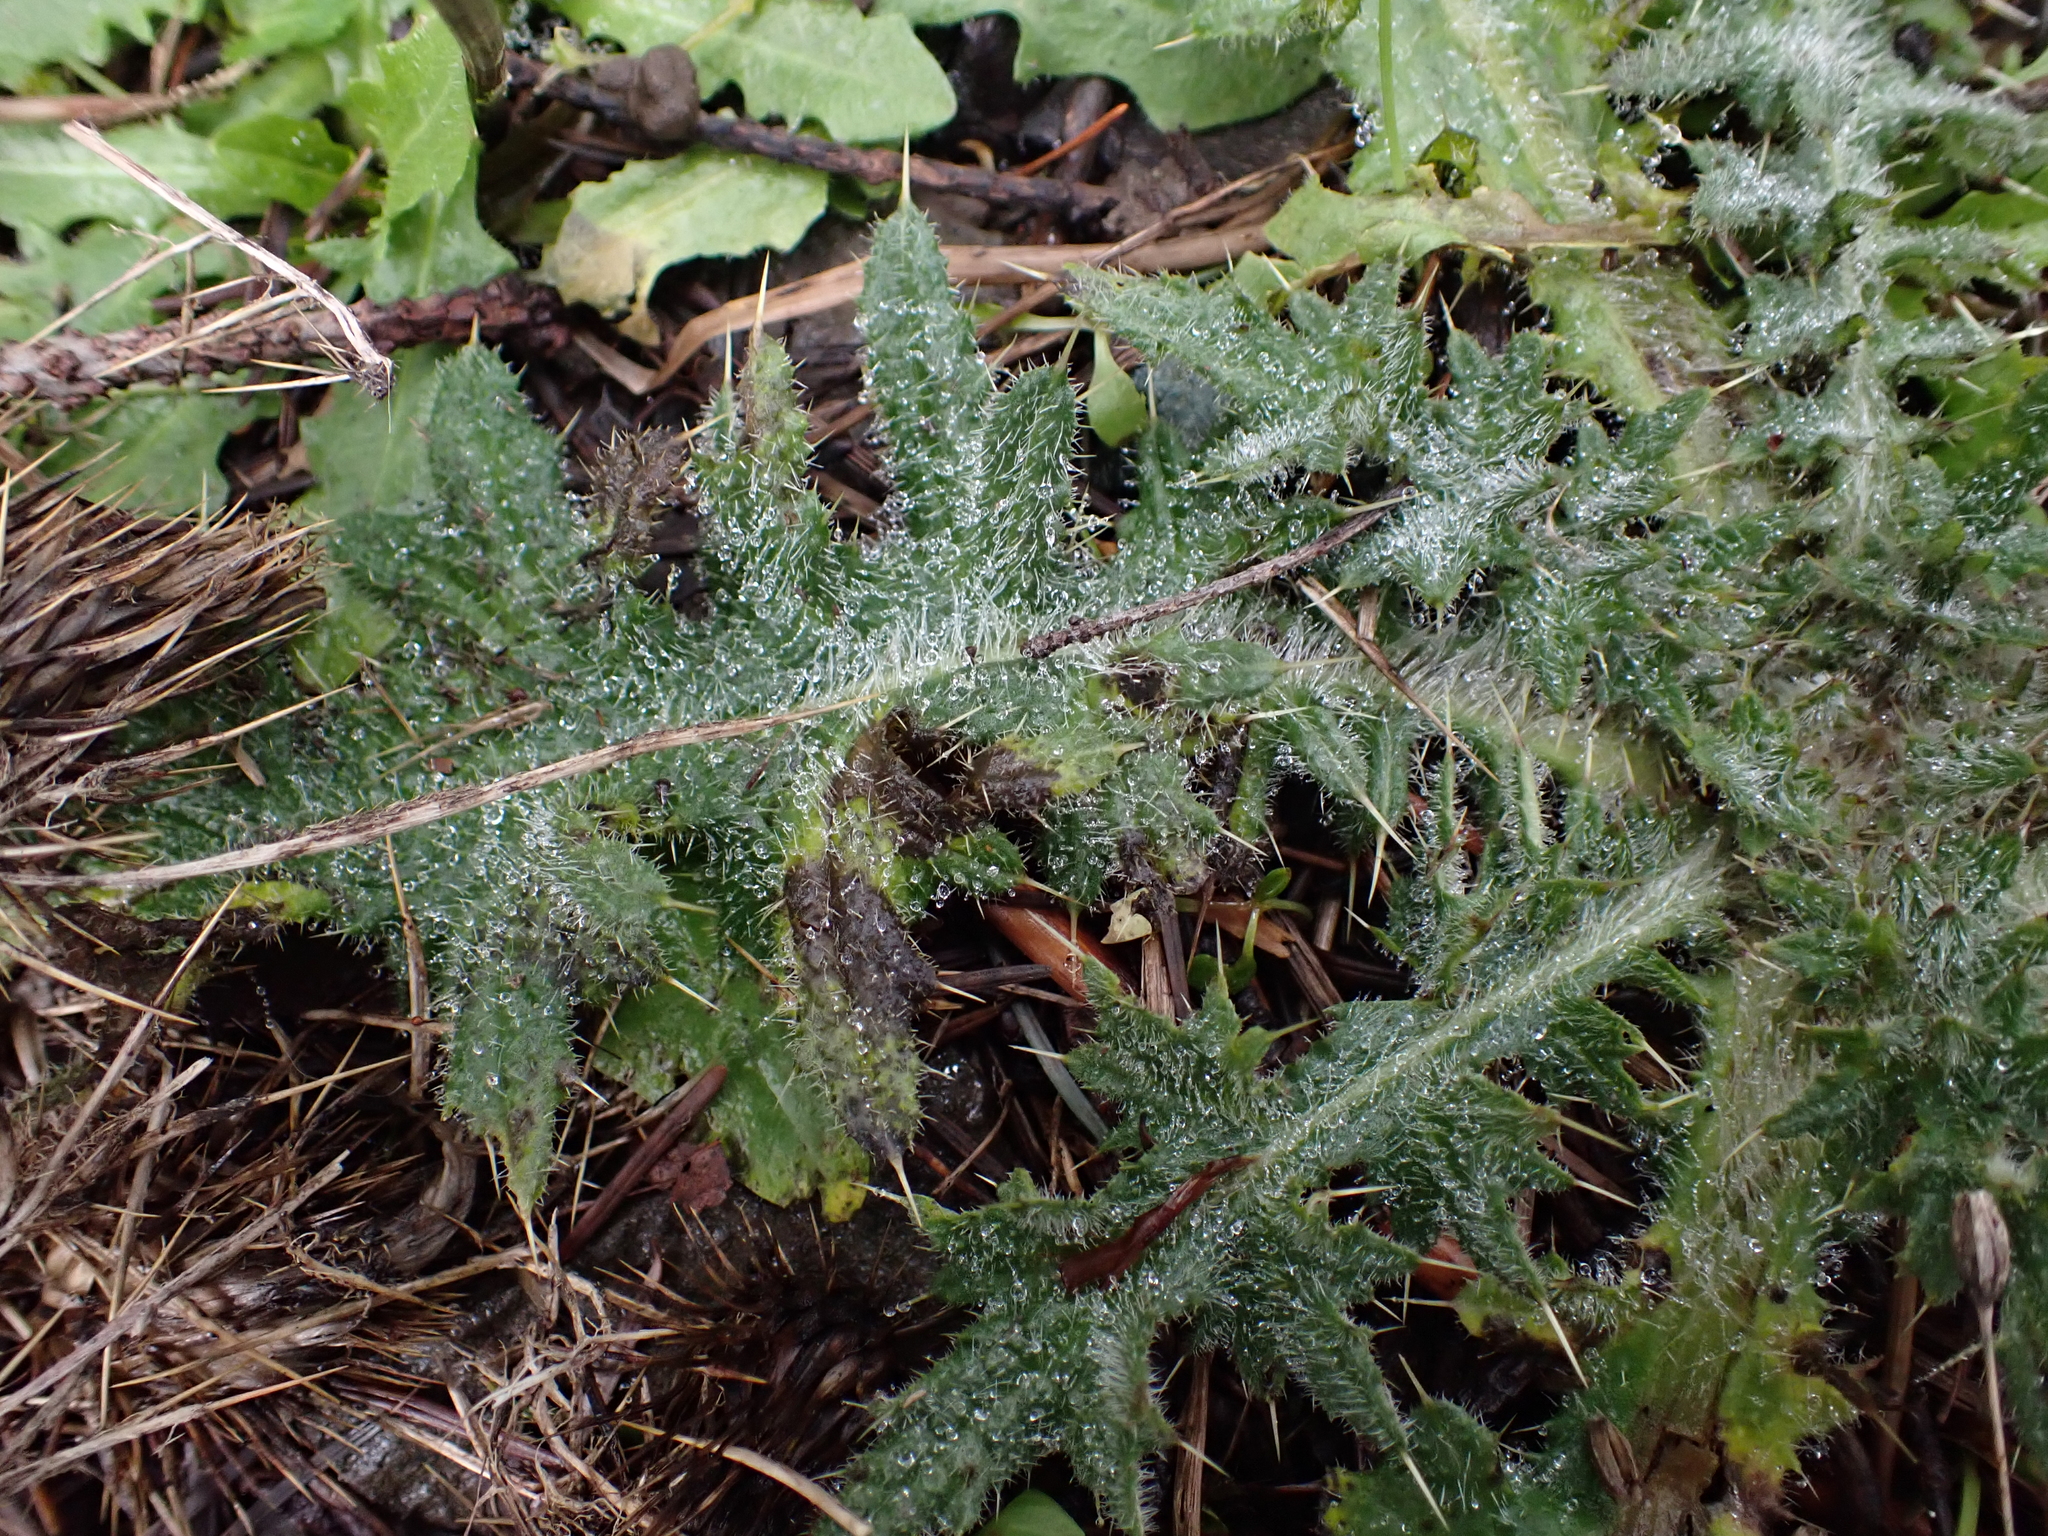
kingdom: Plantae
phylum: Tracheophyta
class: Magnoliopsida
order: Asterales
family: Asteraceae
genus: Cirsium
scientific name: Cirsium vulgare
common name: Bull thistle
